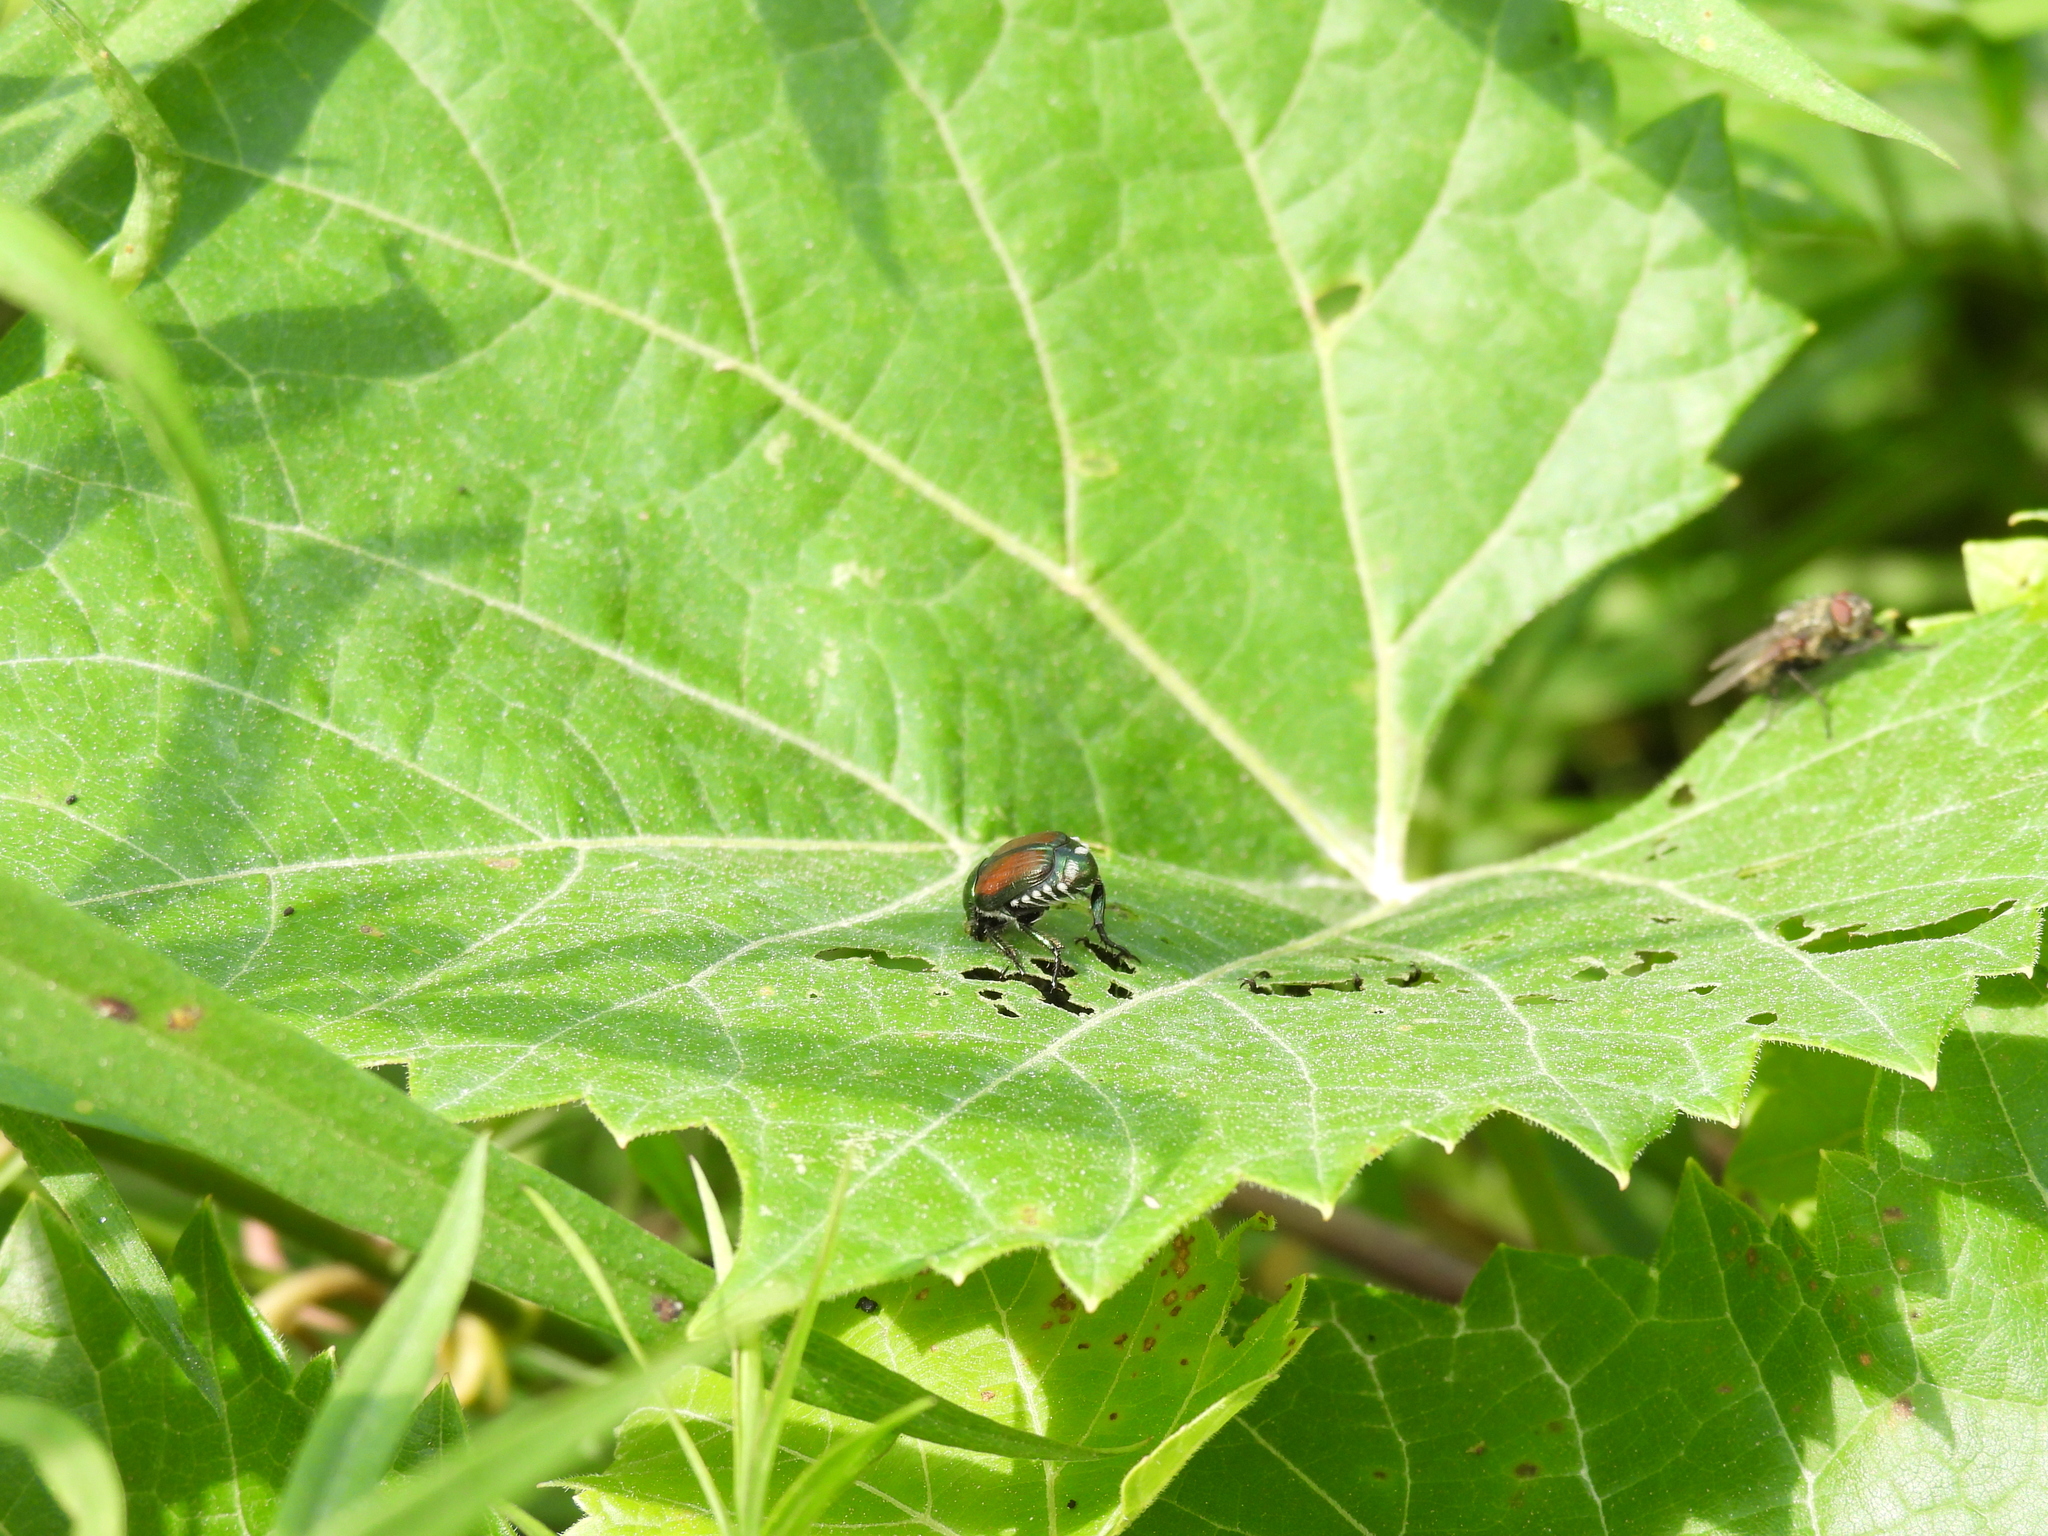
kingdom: Animalia
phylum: Arthropoda
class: Insecta
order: Coleoptera
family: Scarabaeidae
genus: Popillia
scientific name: Popillia japonica
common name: Japanese beetle
